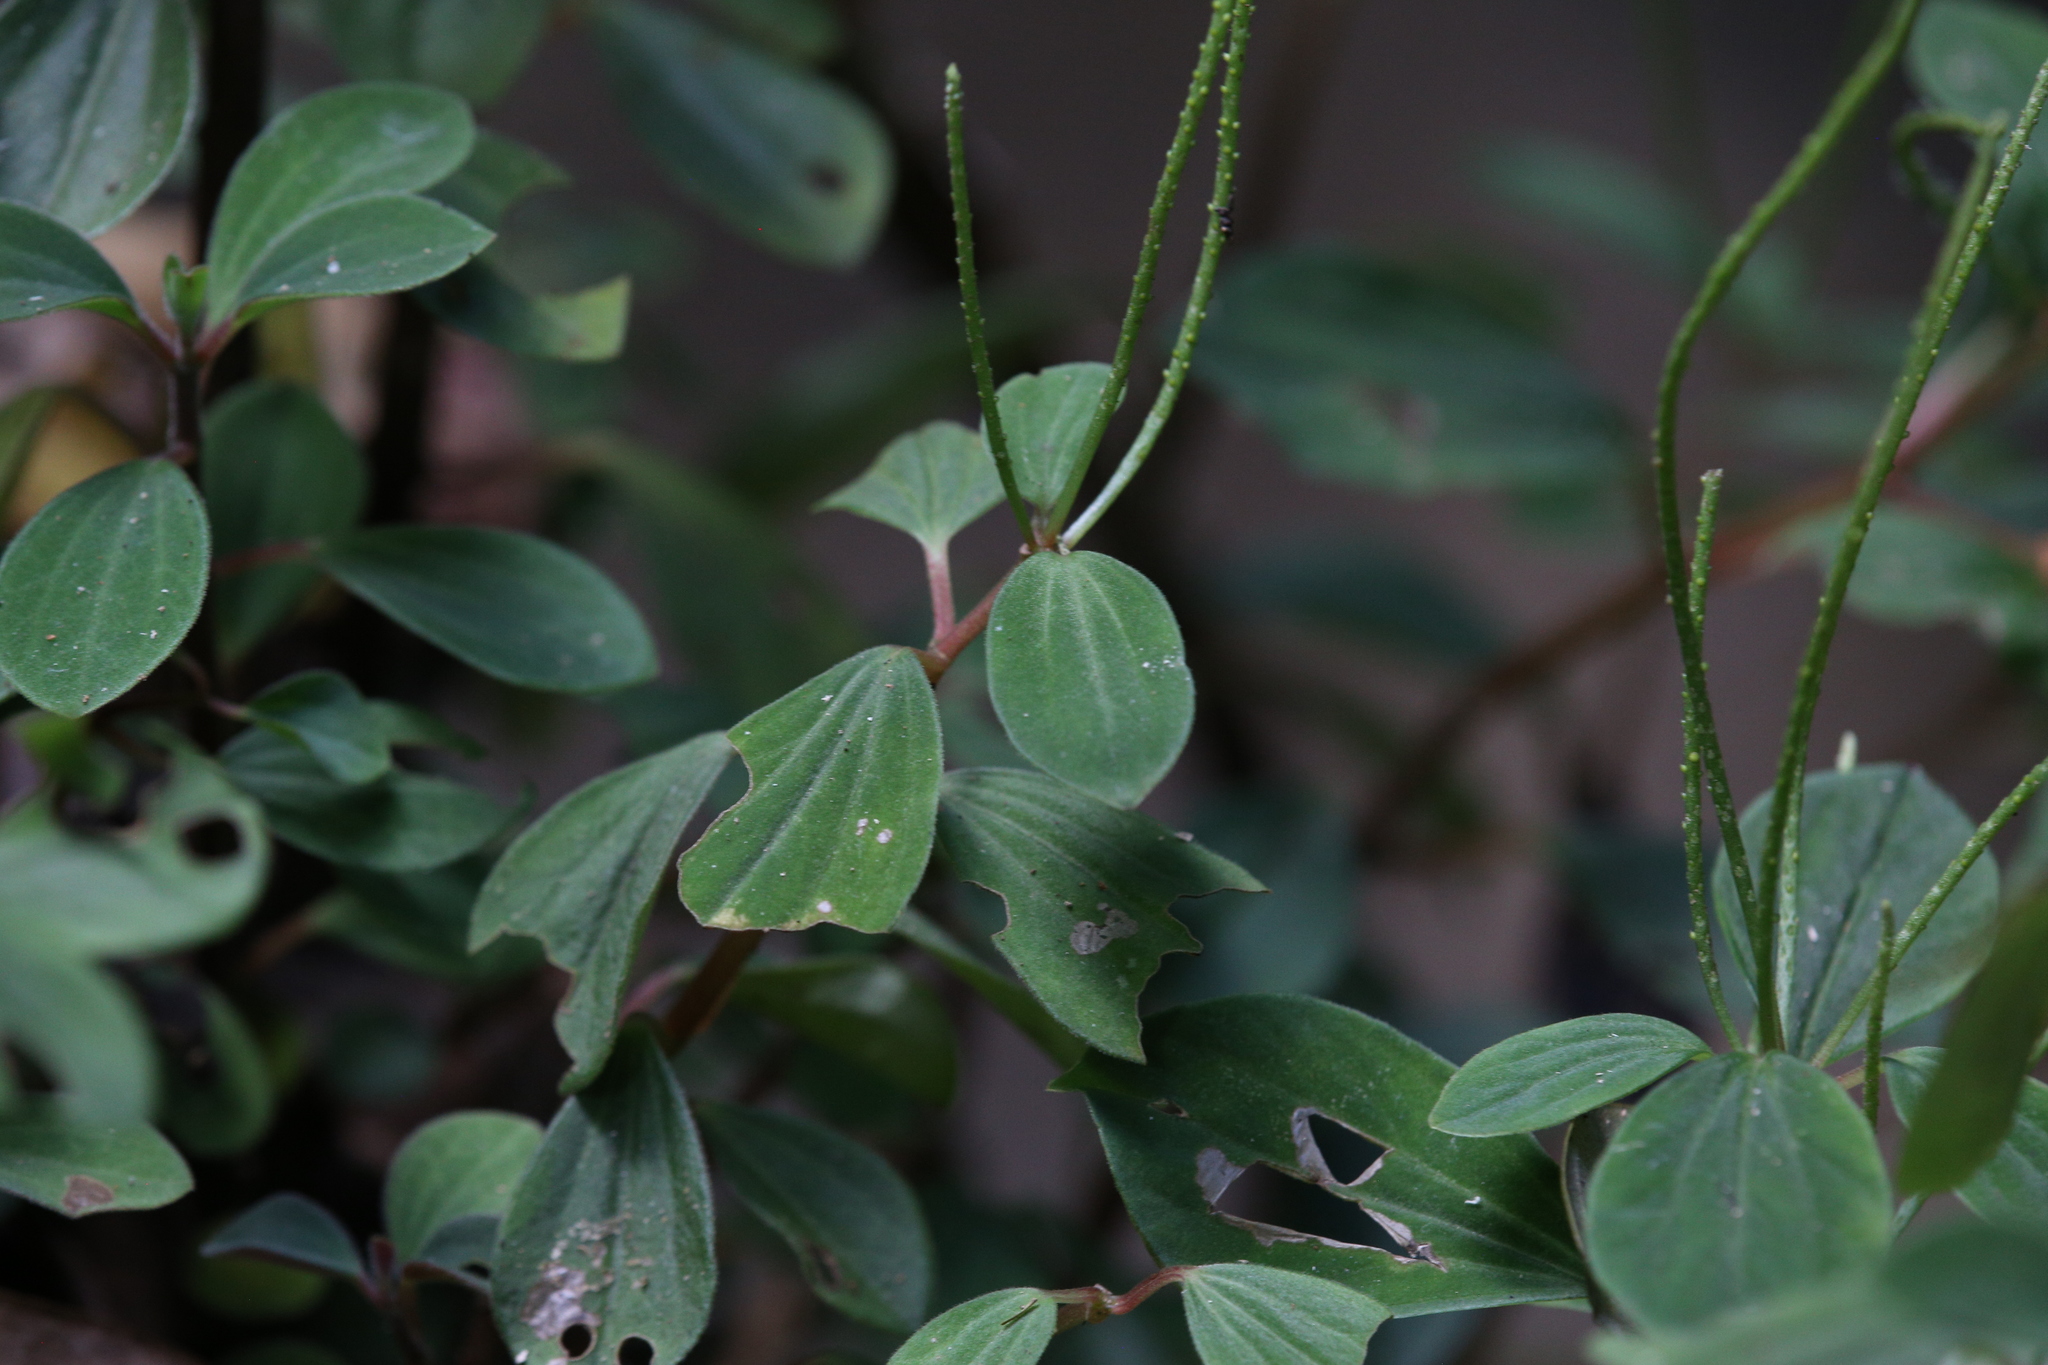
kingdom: Plantae
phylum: Tracheophyta
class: Magnoliopsida
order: Piperales
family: Piperaceae
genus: Peperomia
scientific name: Peperomia leptostachya
